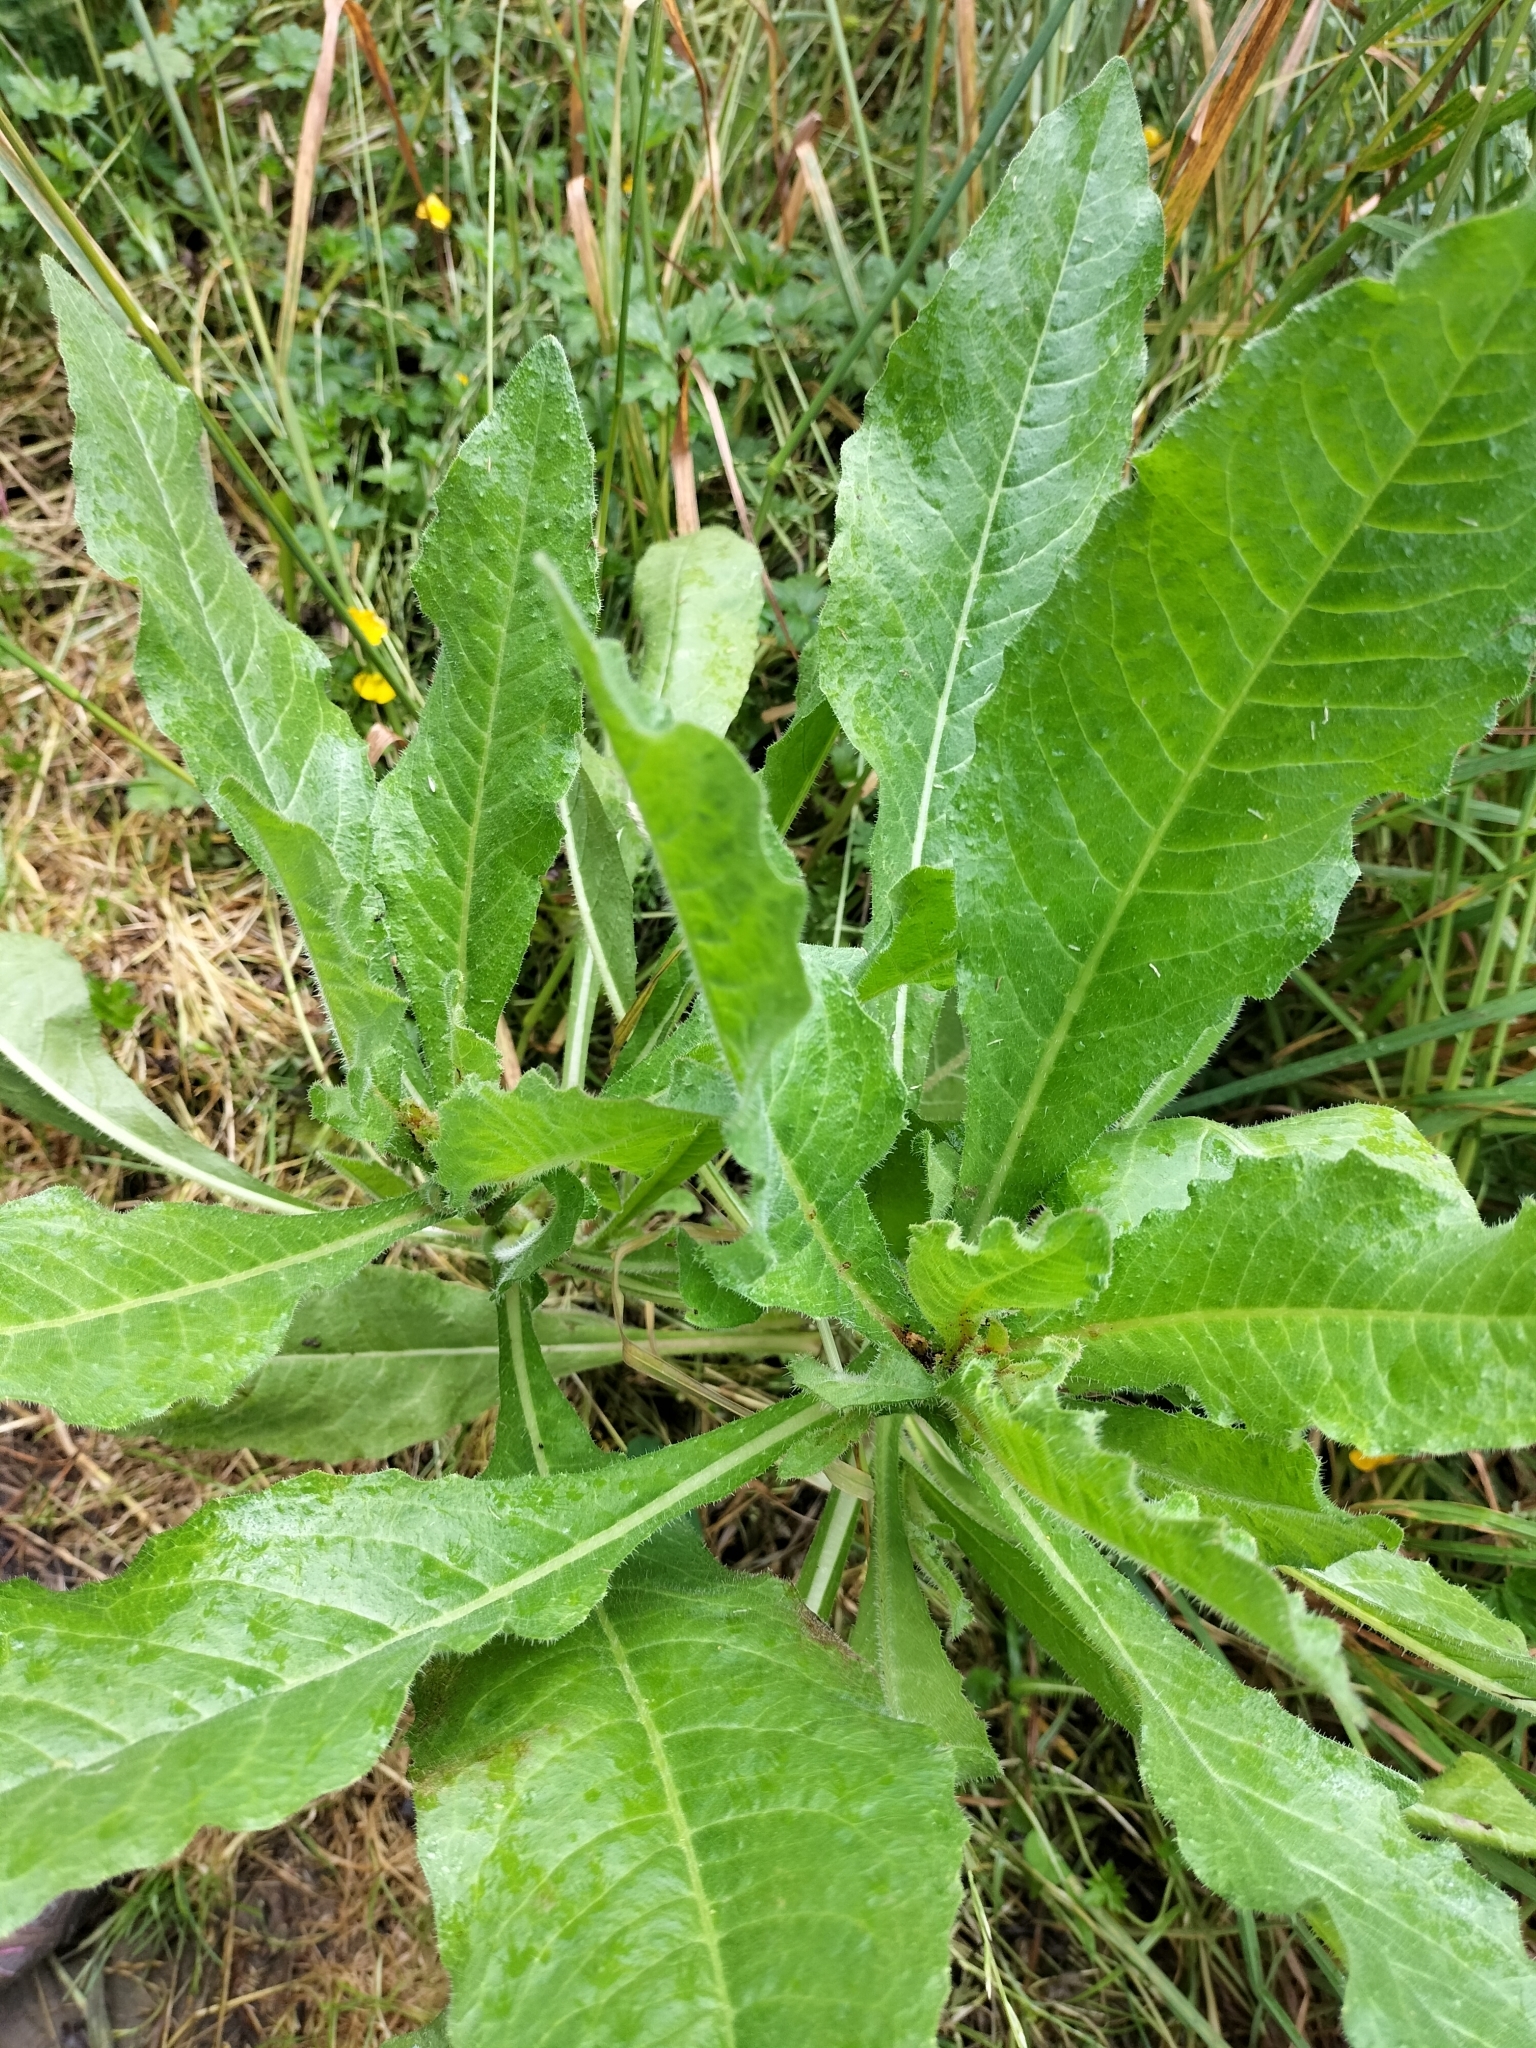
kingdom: Plantae
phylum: Tracheophyta
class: Magnoliopsida
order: Asterales
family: Asteraceae
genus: Helminthotheca
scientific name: Helminthotheca echioides
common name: Ox-tongue
